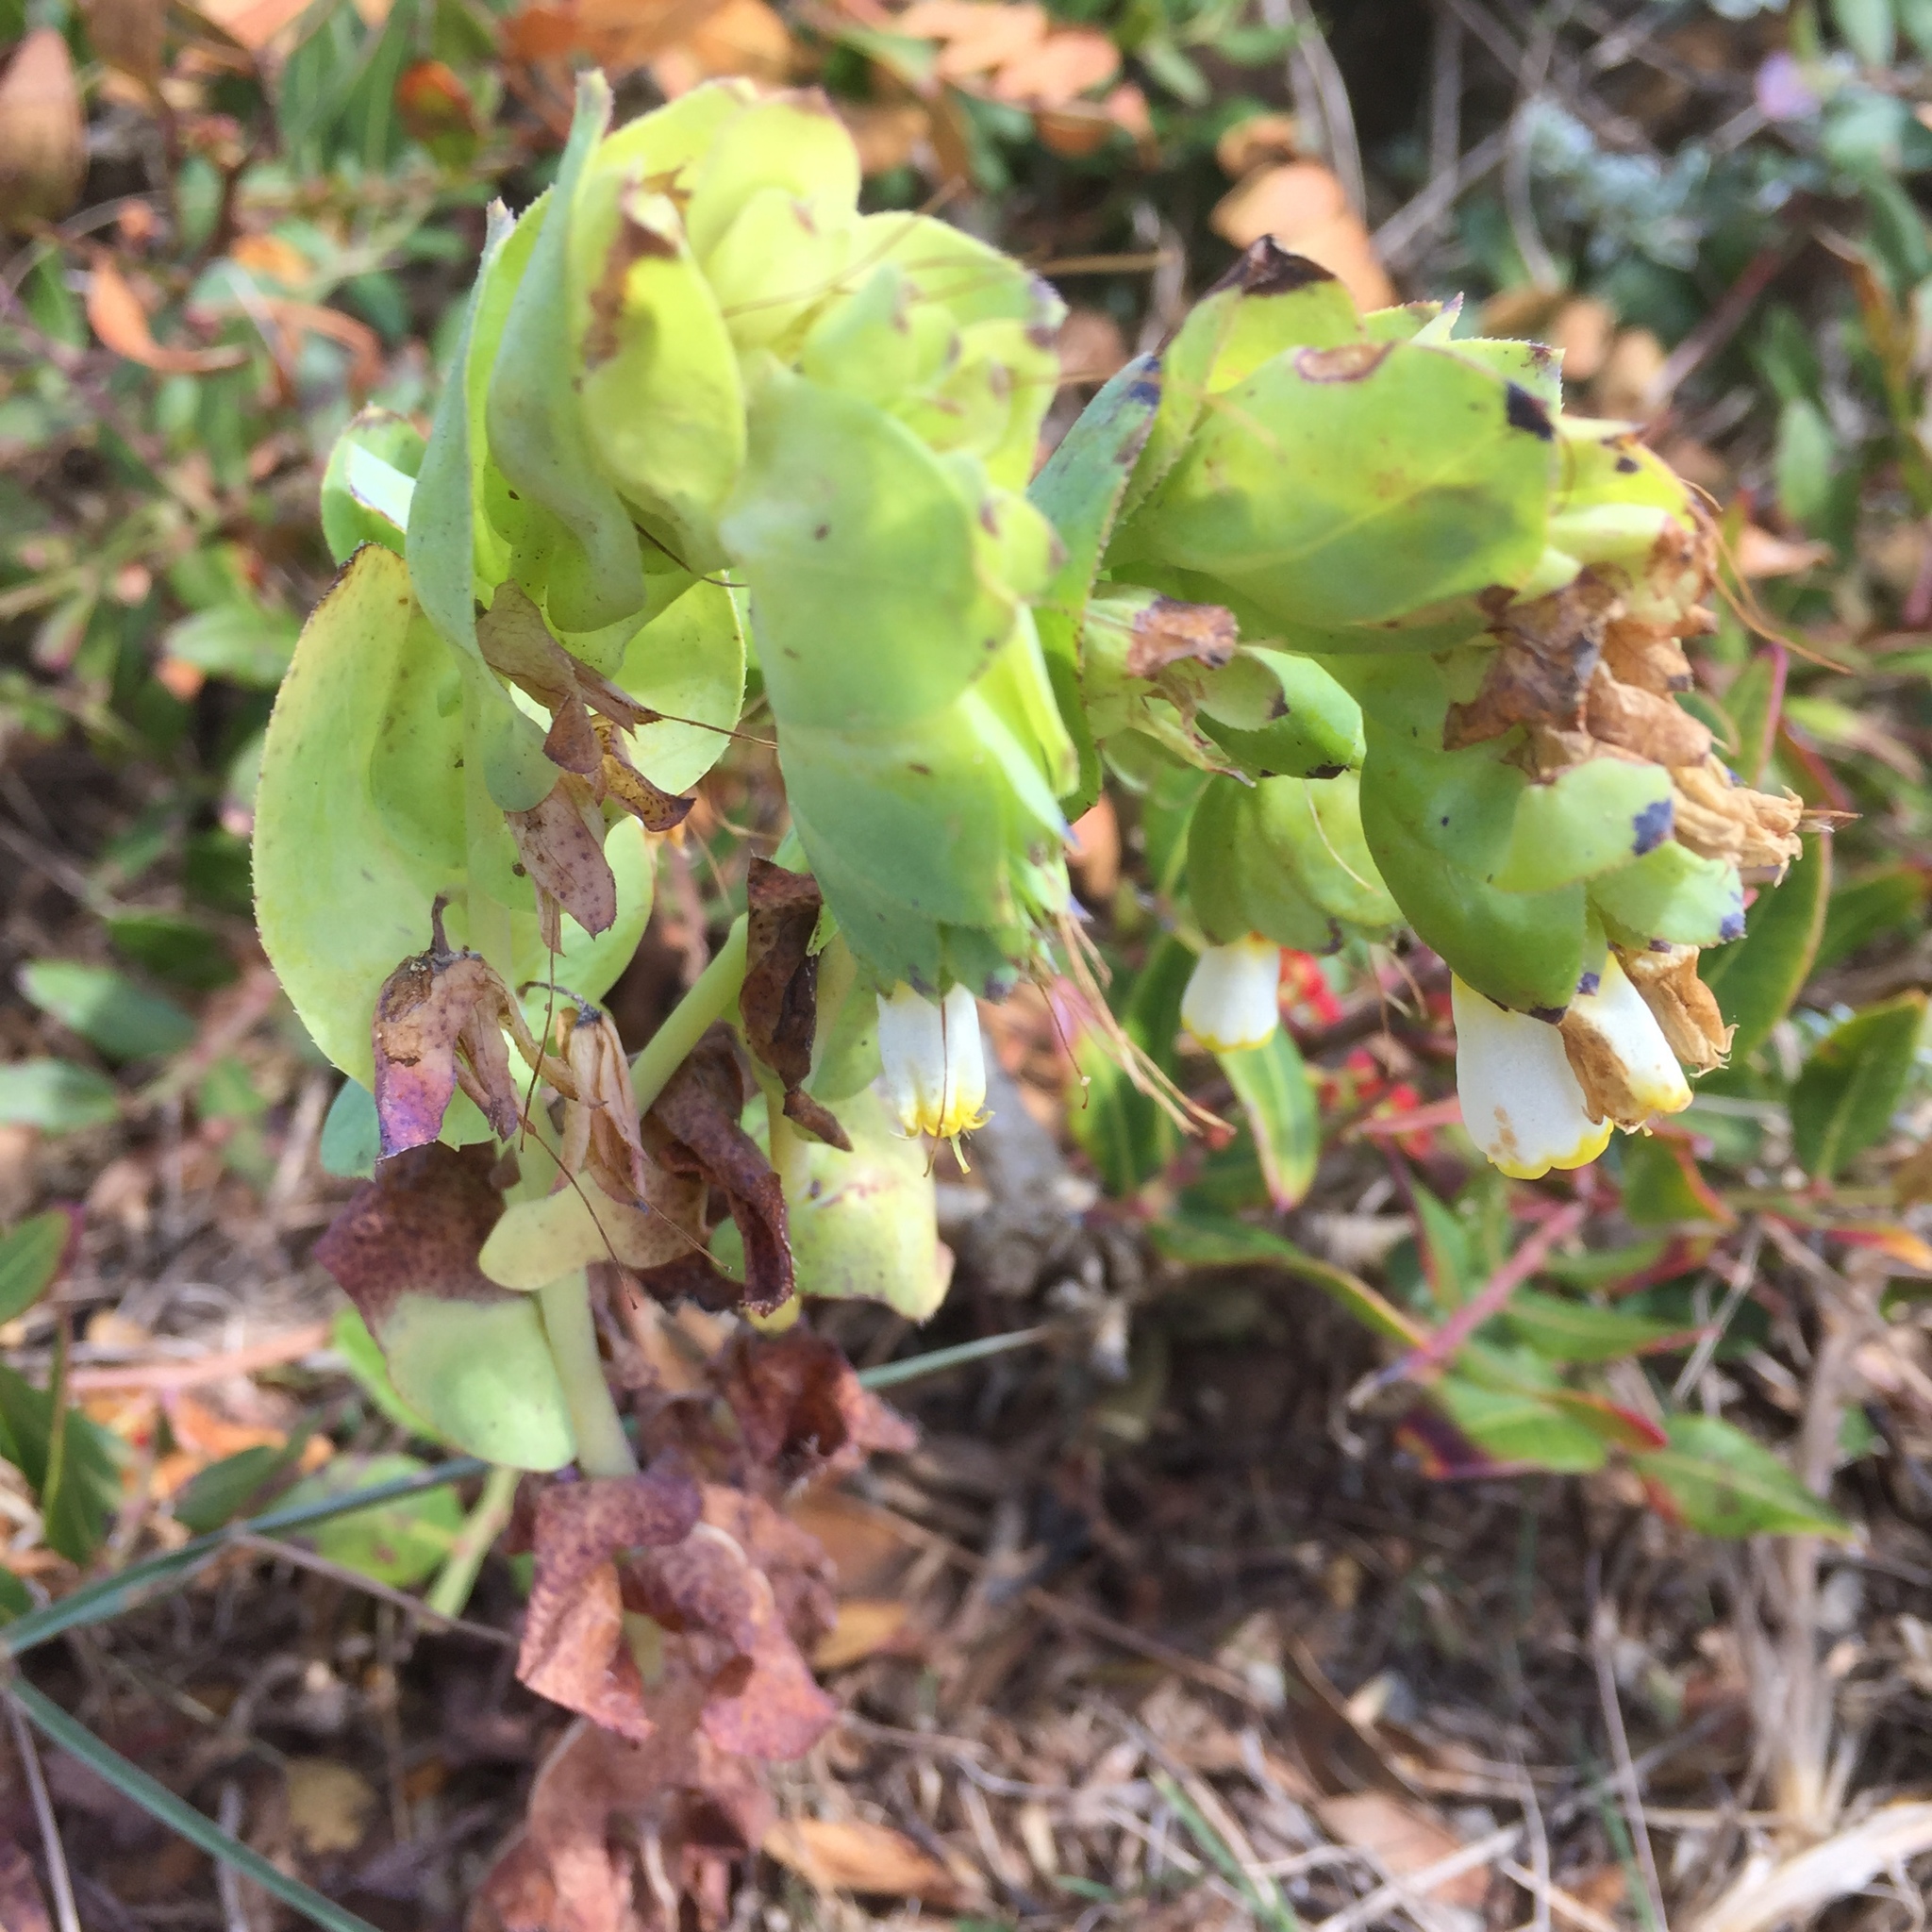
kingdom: Plantae
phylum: Tracheophyta
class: Magnoliopsida
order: Boraginales
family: Boraginaceae
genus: Cerinthe
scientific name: Cerinthe major
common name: Greater honeywort
